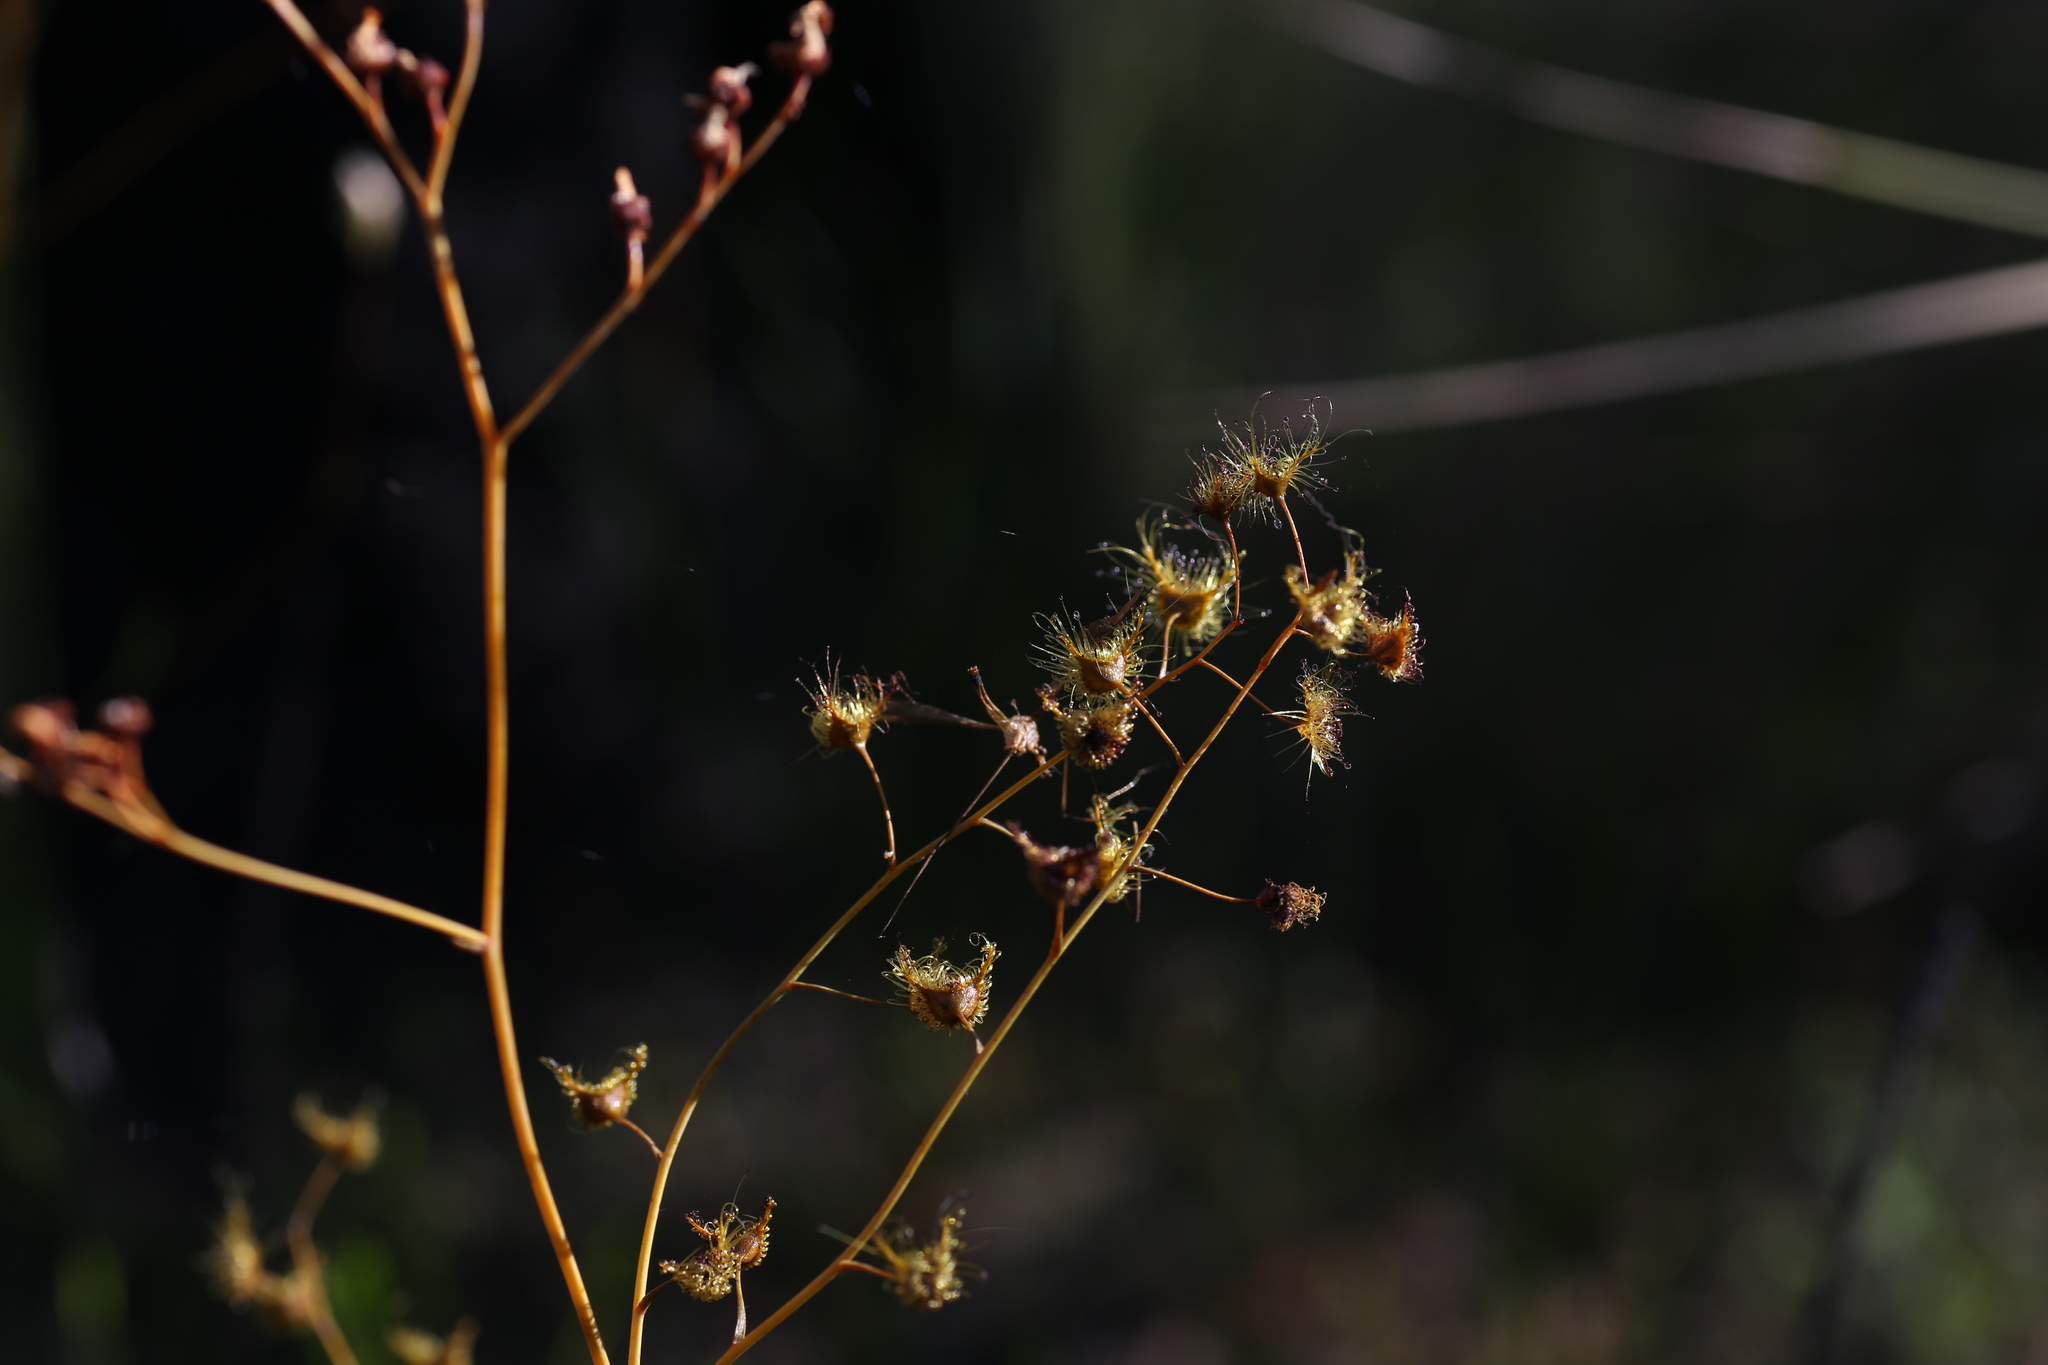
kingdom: Plantae
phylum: Tracheophyta
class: Magnoliopsida
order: Caryophyllales
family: Droseraceae
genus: Drosera
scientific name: Drosera gigantea
